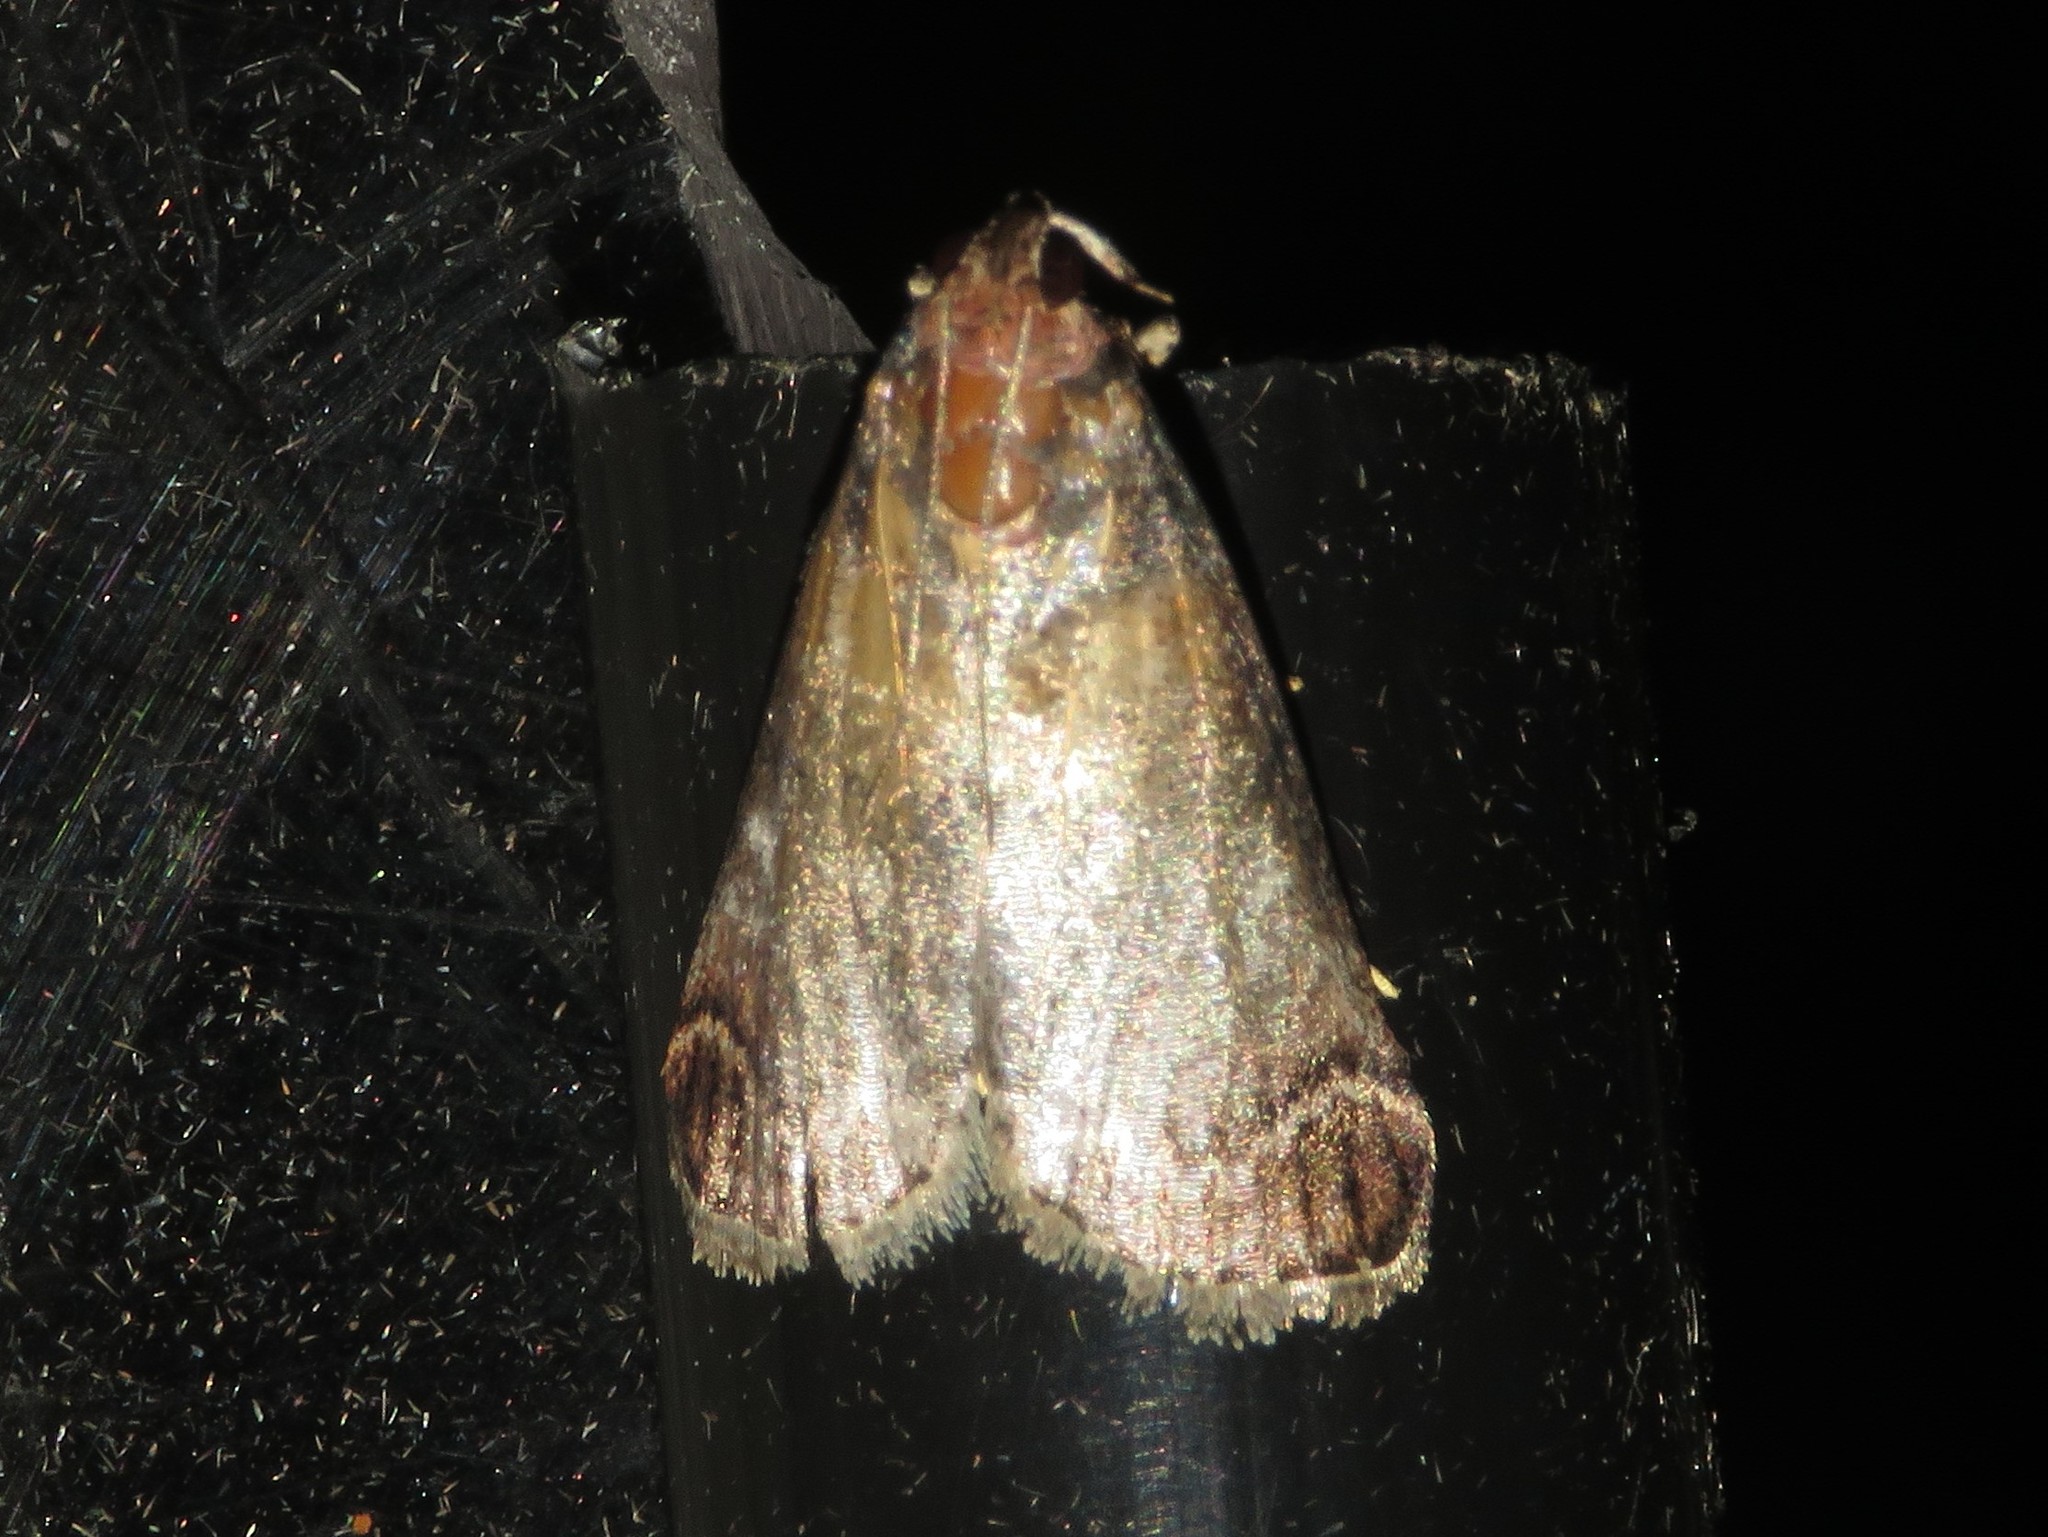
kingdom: Animalia
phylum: Arthropoda
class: Insecta
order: Lepidoptera
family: Pyralidae
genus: Oneida
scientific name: Oneida lunulalis
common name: Orange-tufted oneida moth
